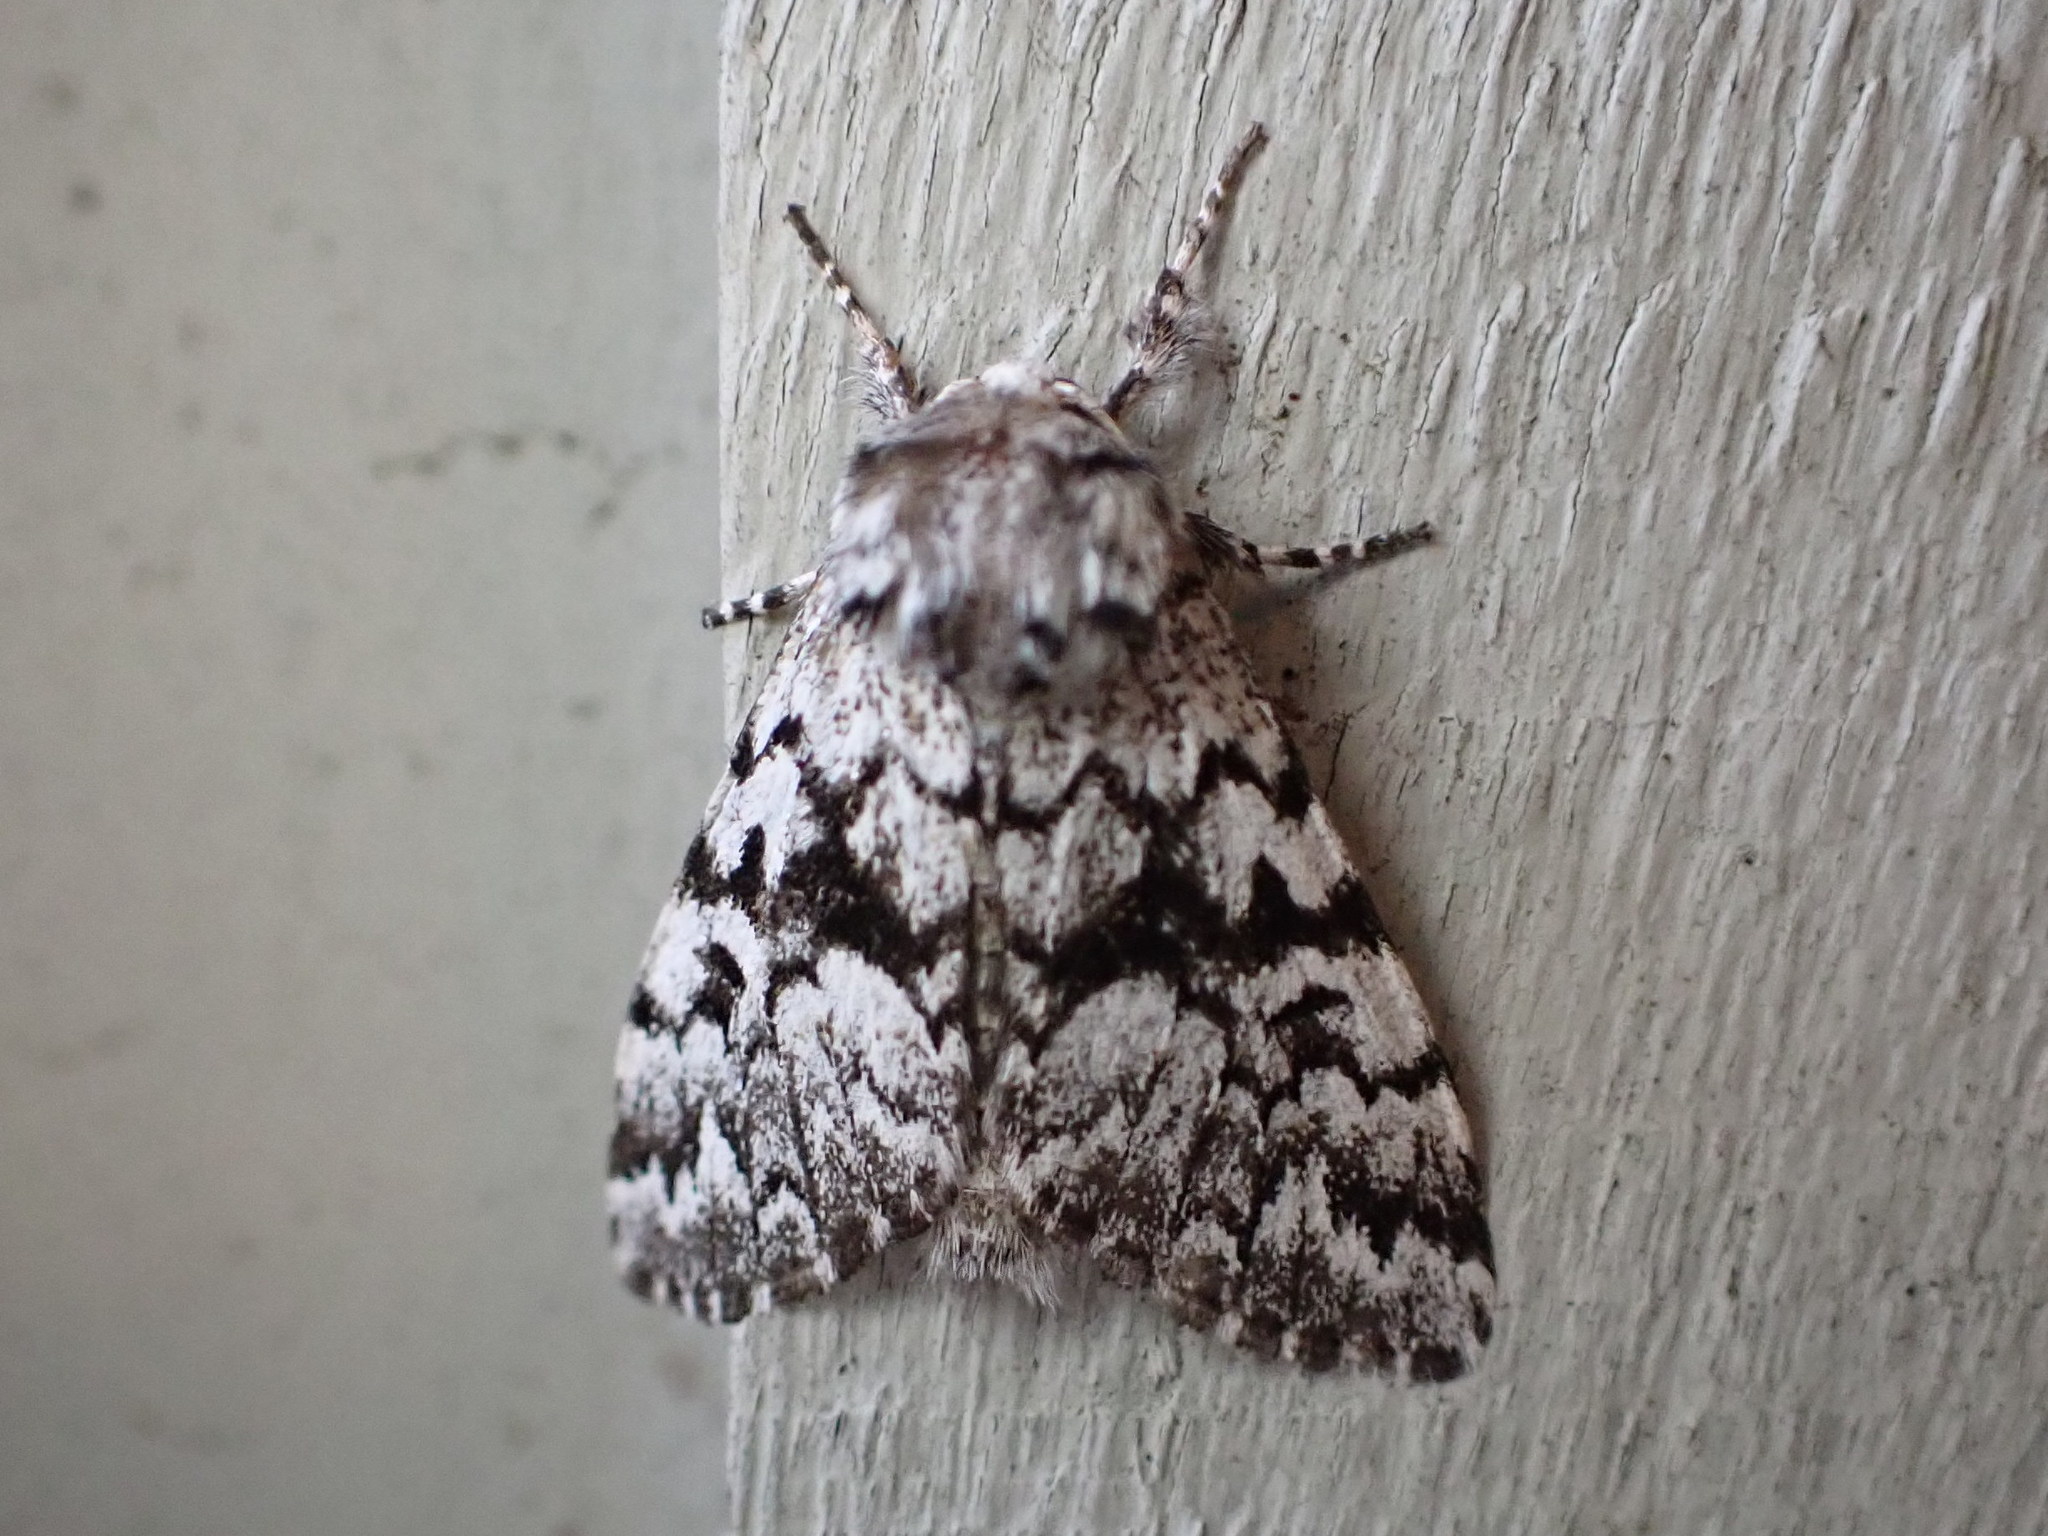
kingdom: Animalia
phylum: Arthropoda
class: Insecta
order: Lepidoptera
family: Noctuidae
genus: Panthea
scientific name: Panthea acronyctoides
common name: Black zigzag moth
